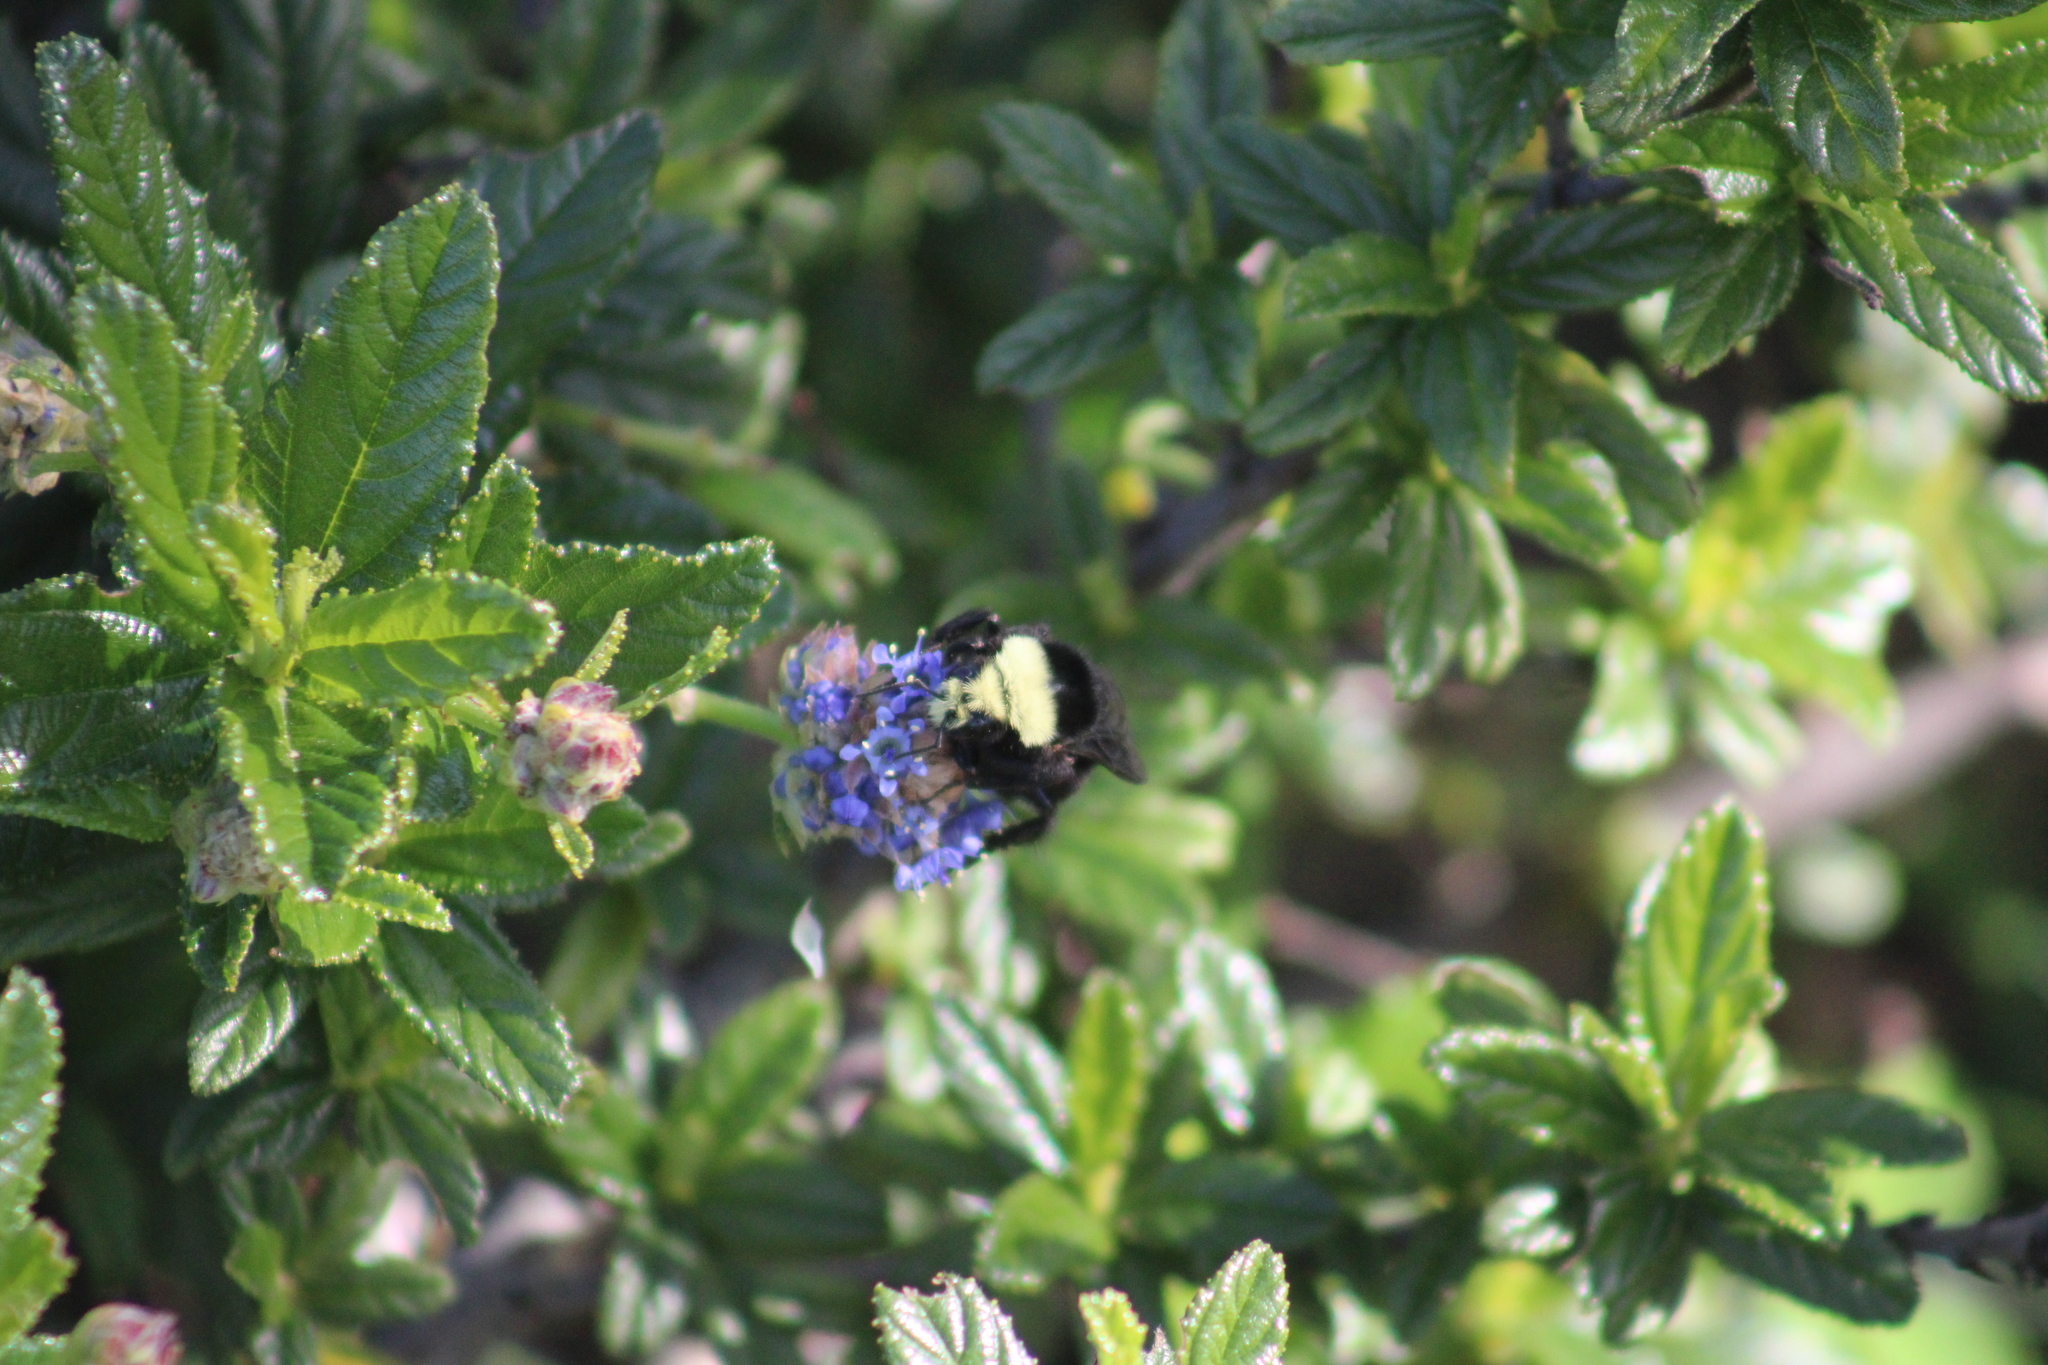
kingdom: Animalia
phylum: Arthropoda
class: Insecta
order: Hymenoptera
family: Apidae
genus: Bombus
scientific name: Bombus vosnesenskii
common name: Vosnesensky bumble bee
